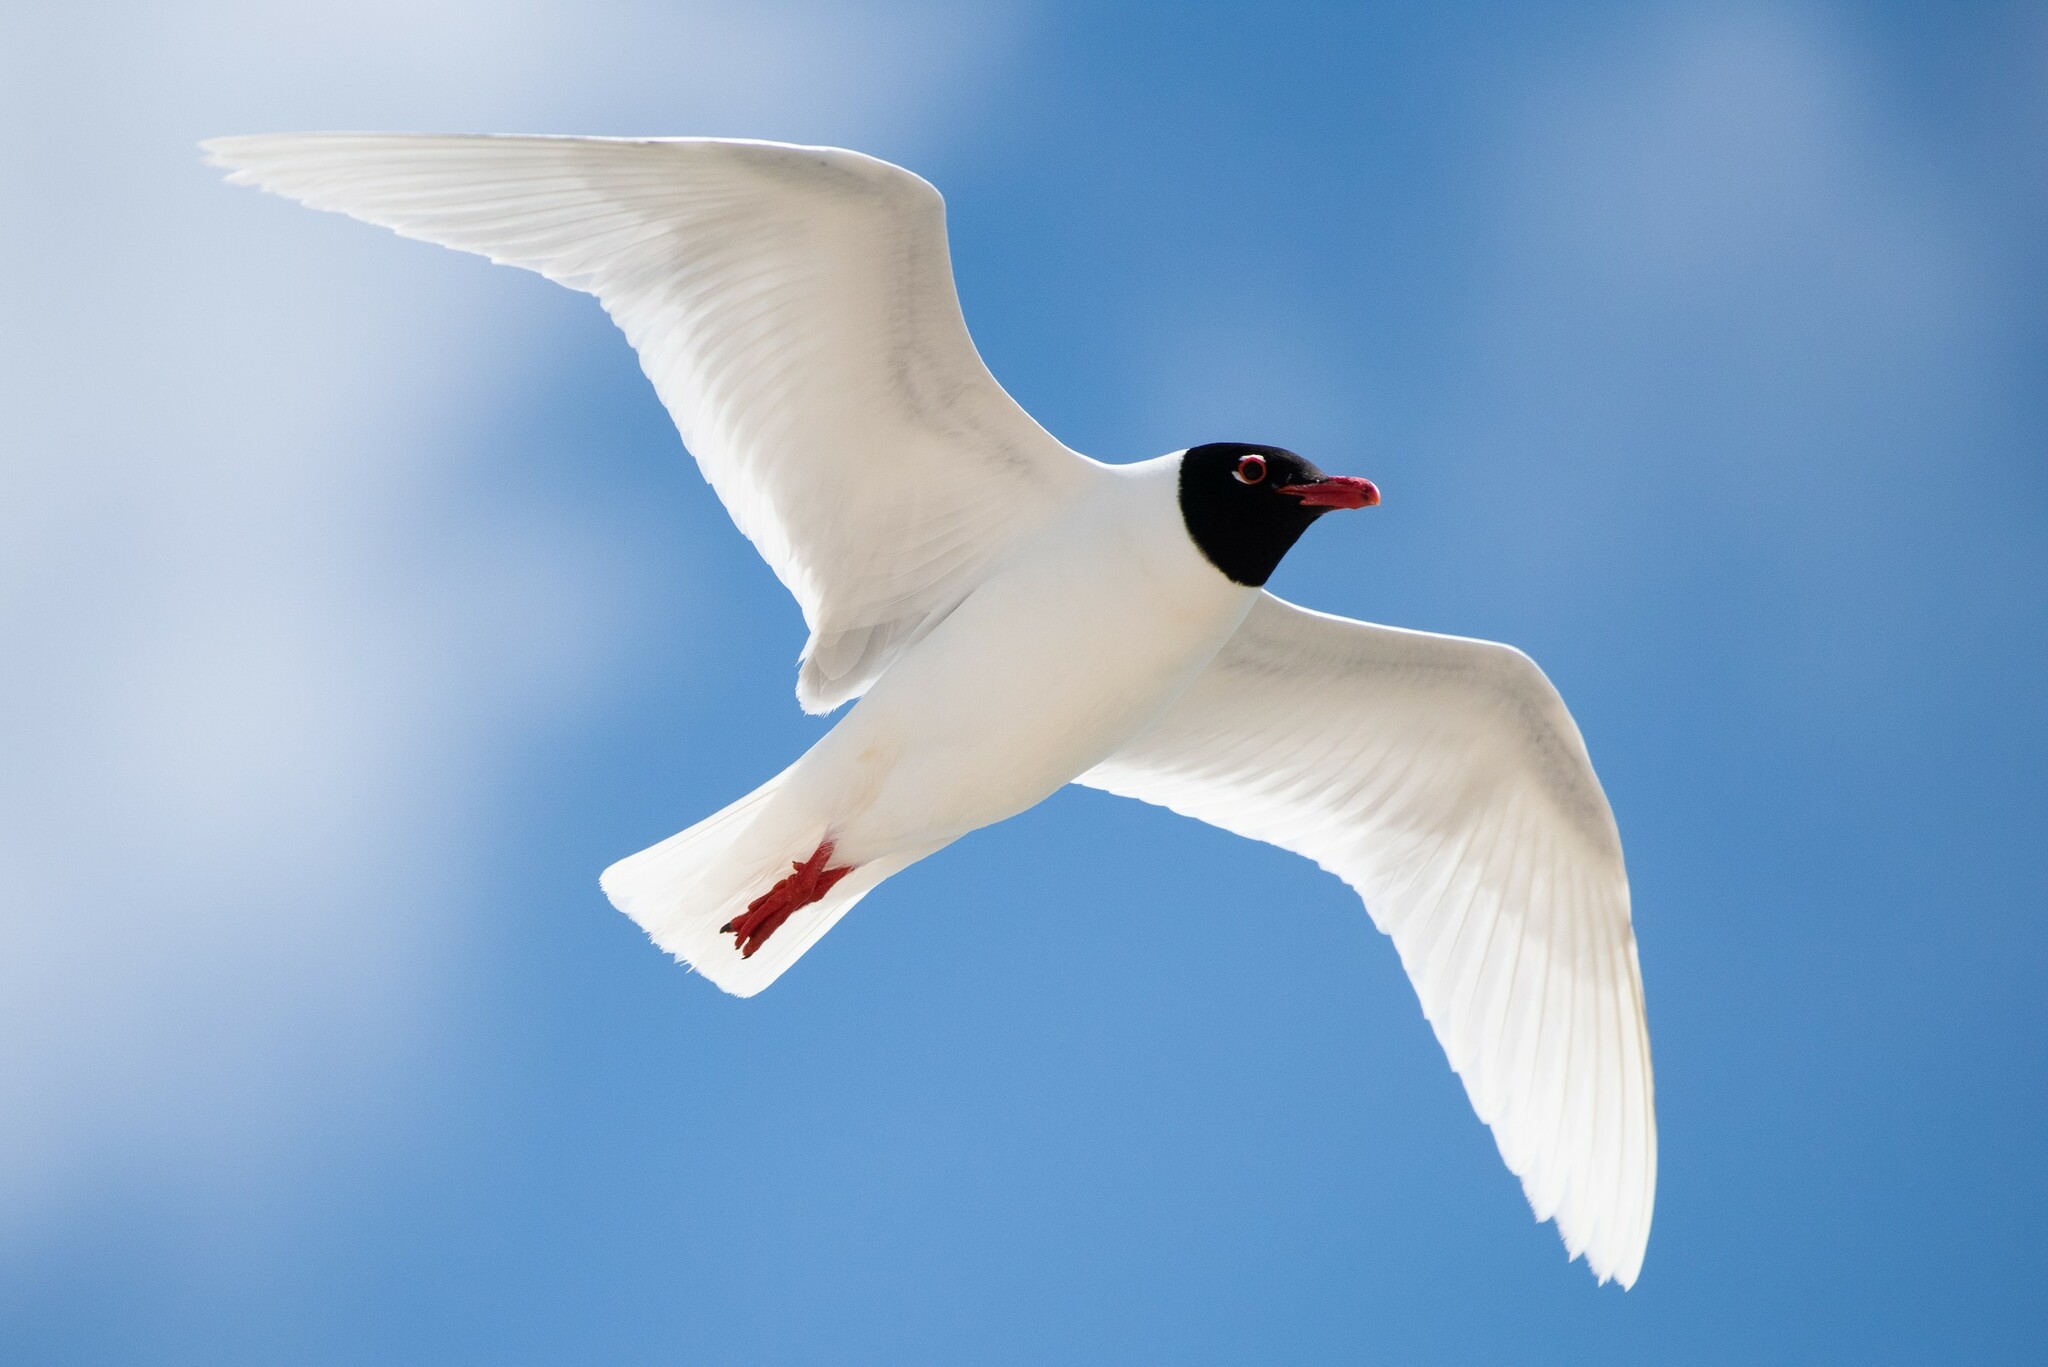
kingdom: Animalia
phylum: Chordata
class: Aves
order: Charadriiformes
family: Laridae
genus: Ichthyaetus
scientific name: Ichthyaetus melanocephalus
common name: Mediterranean gull
